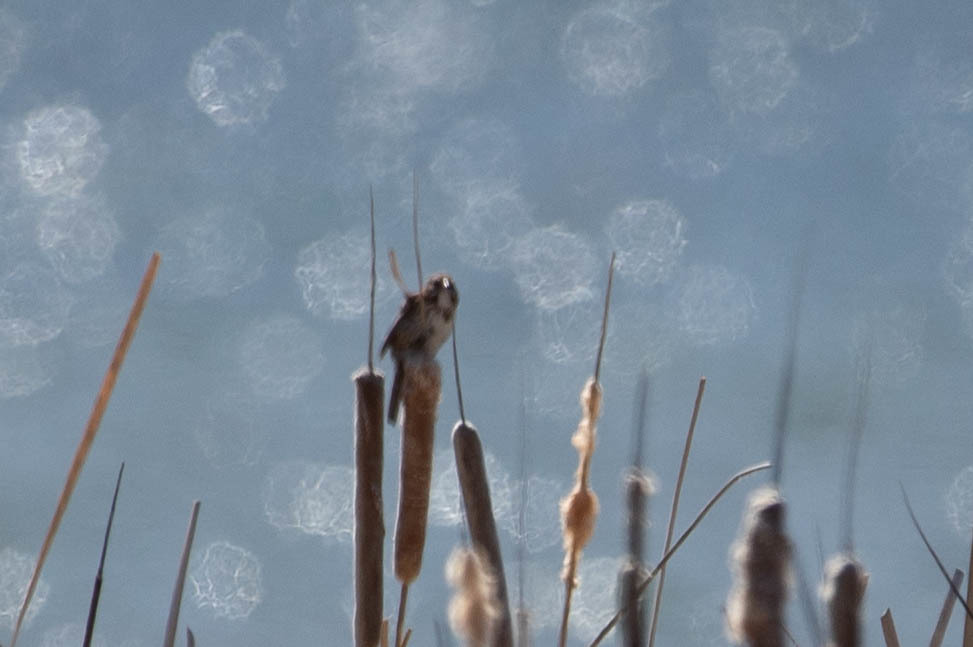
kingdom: Animalia
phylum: Chordata
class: Aves
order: Passeriformes
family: Passerellidae
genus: Melospiza
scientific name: Melospiza melodia
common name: Song sparrow
